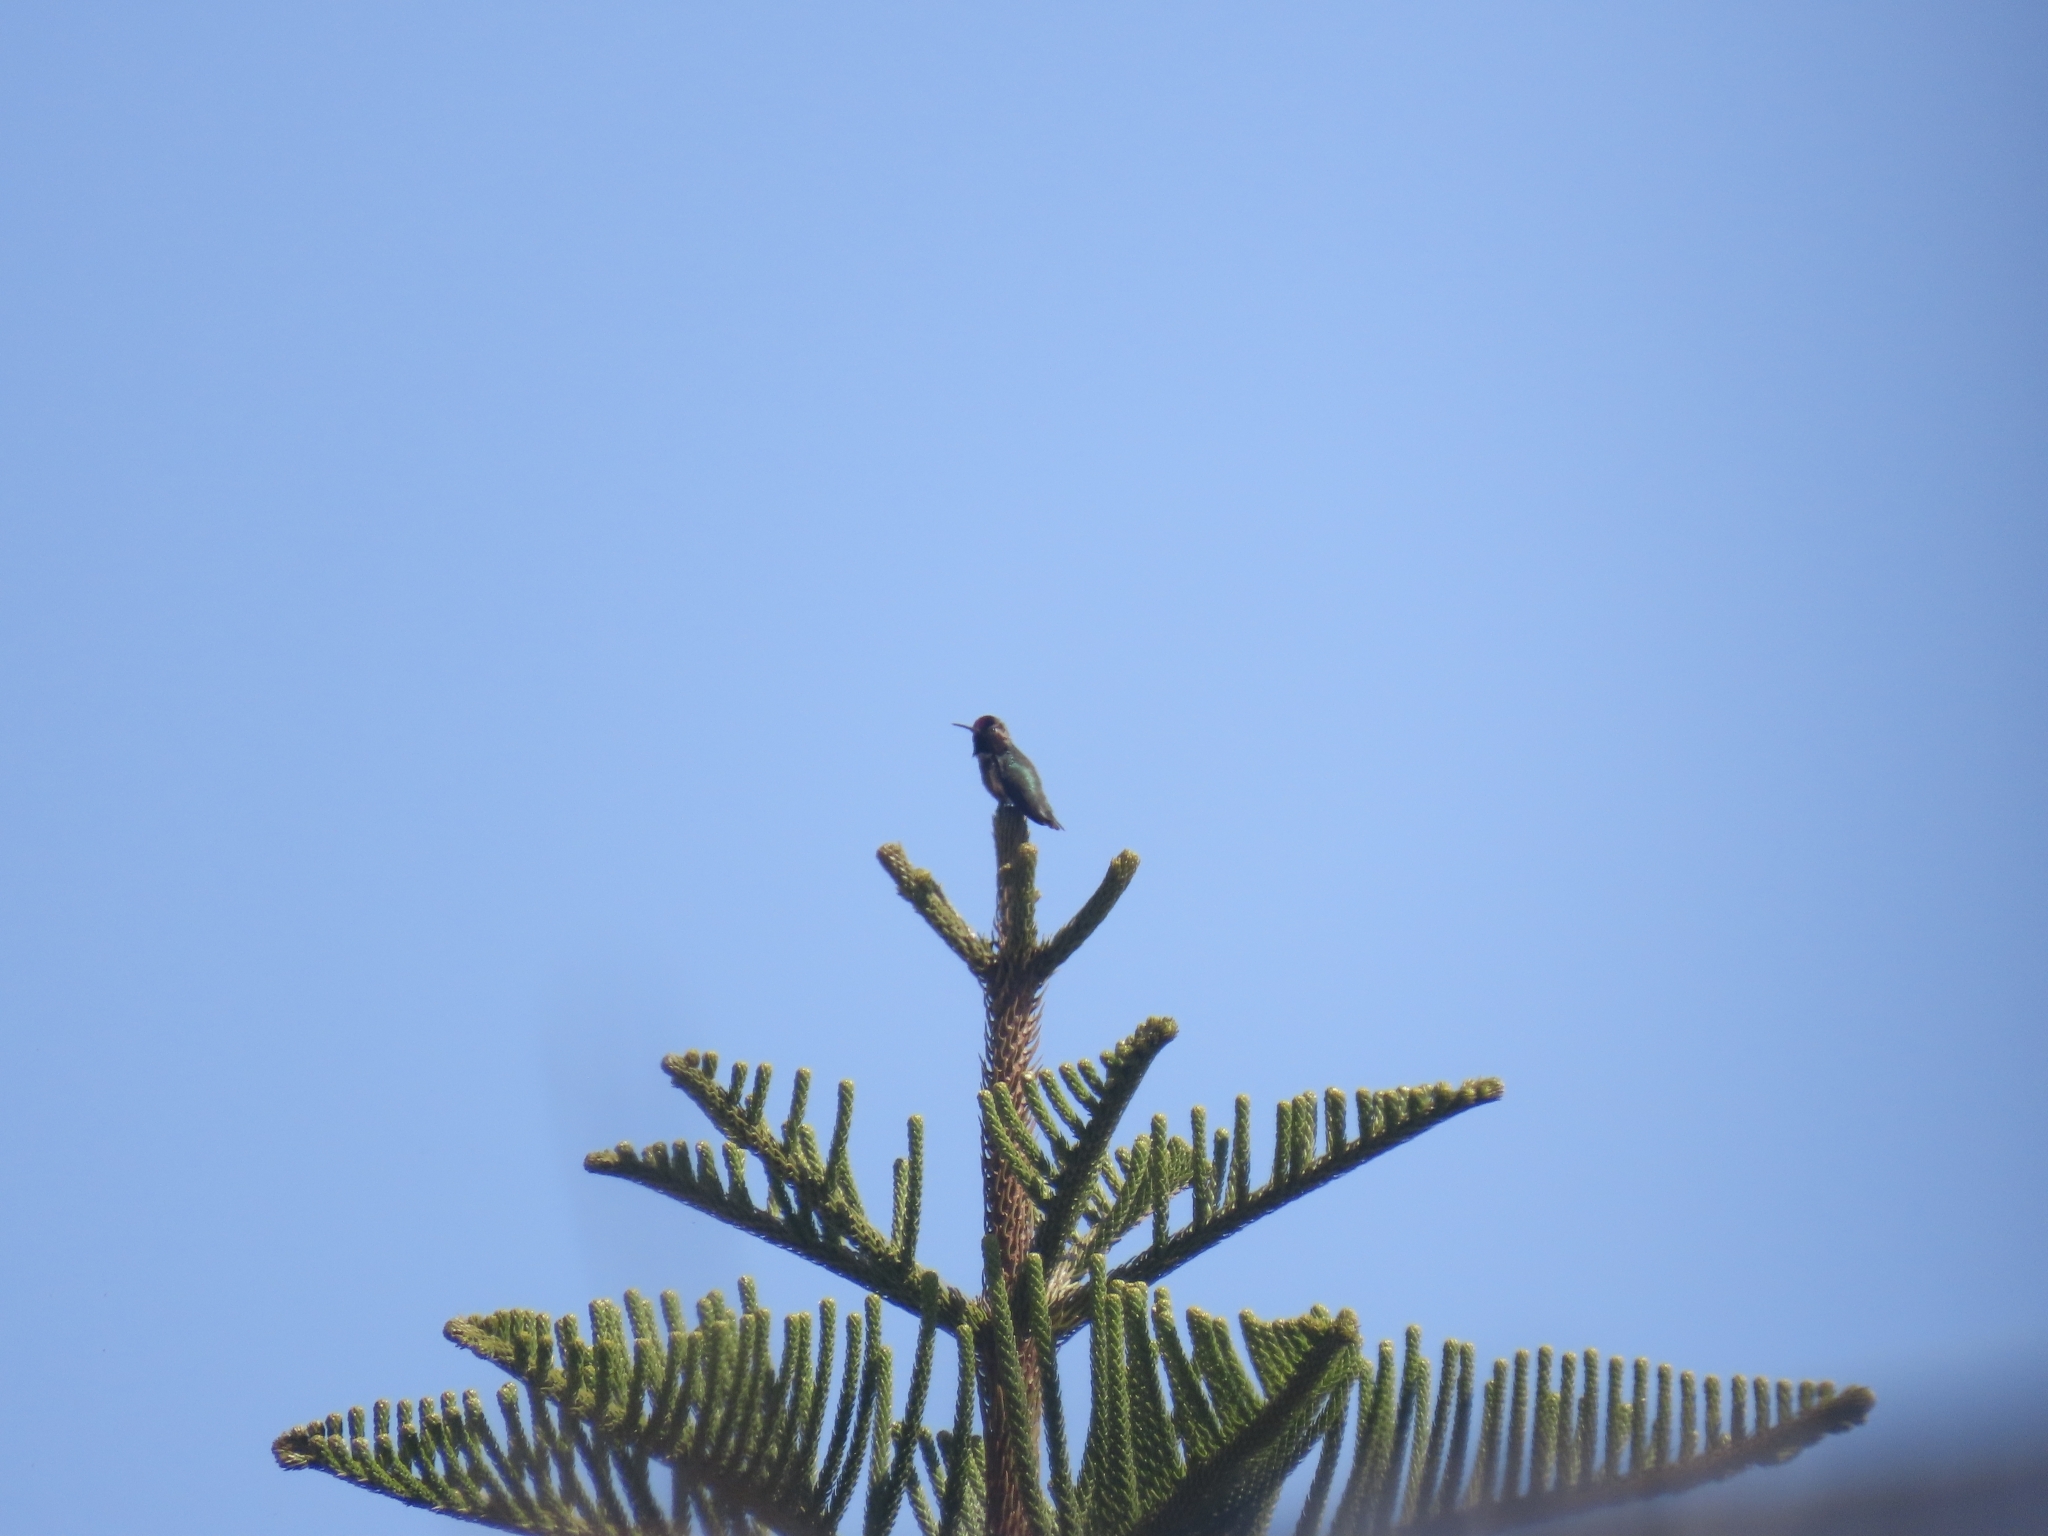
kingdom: Animalia
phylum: Chordata
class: Aves
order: Apodiformes
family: Trochilidae
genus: Calypte
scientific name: Calypte anna
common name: Anna's hummingbird
